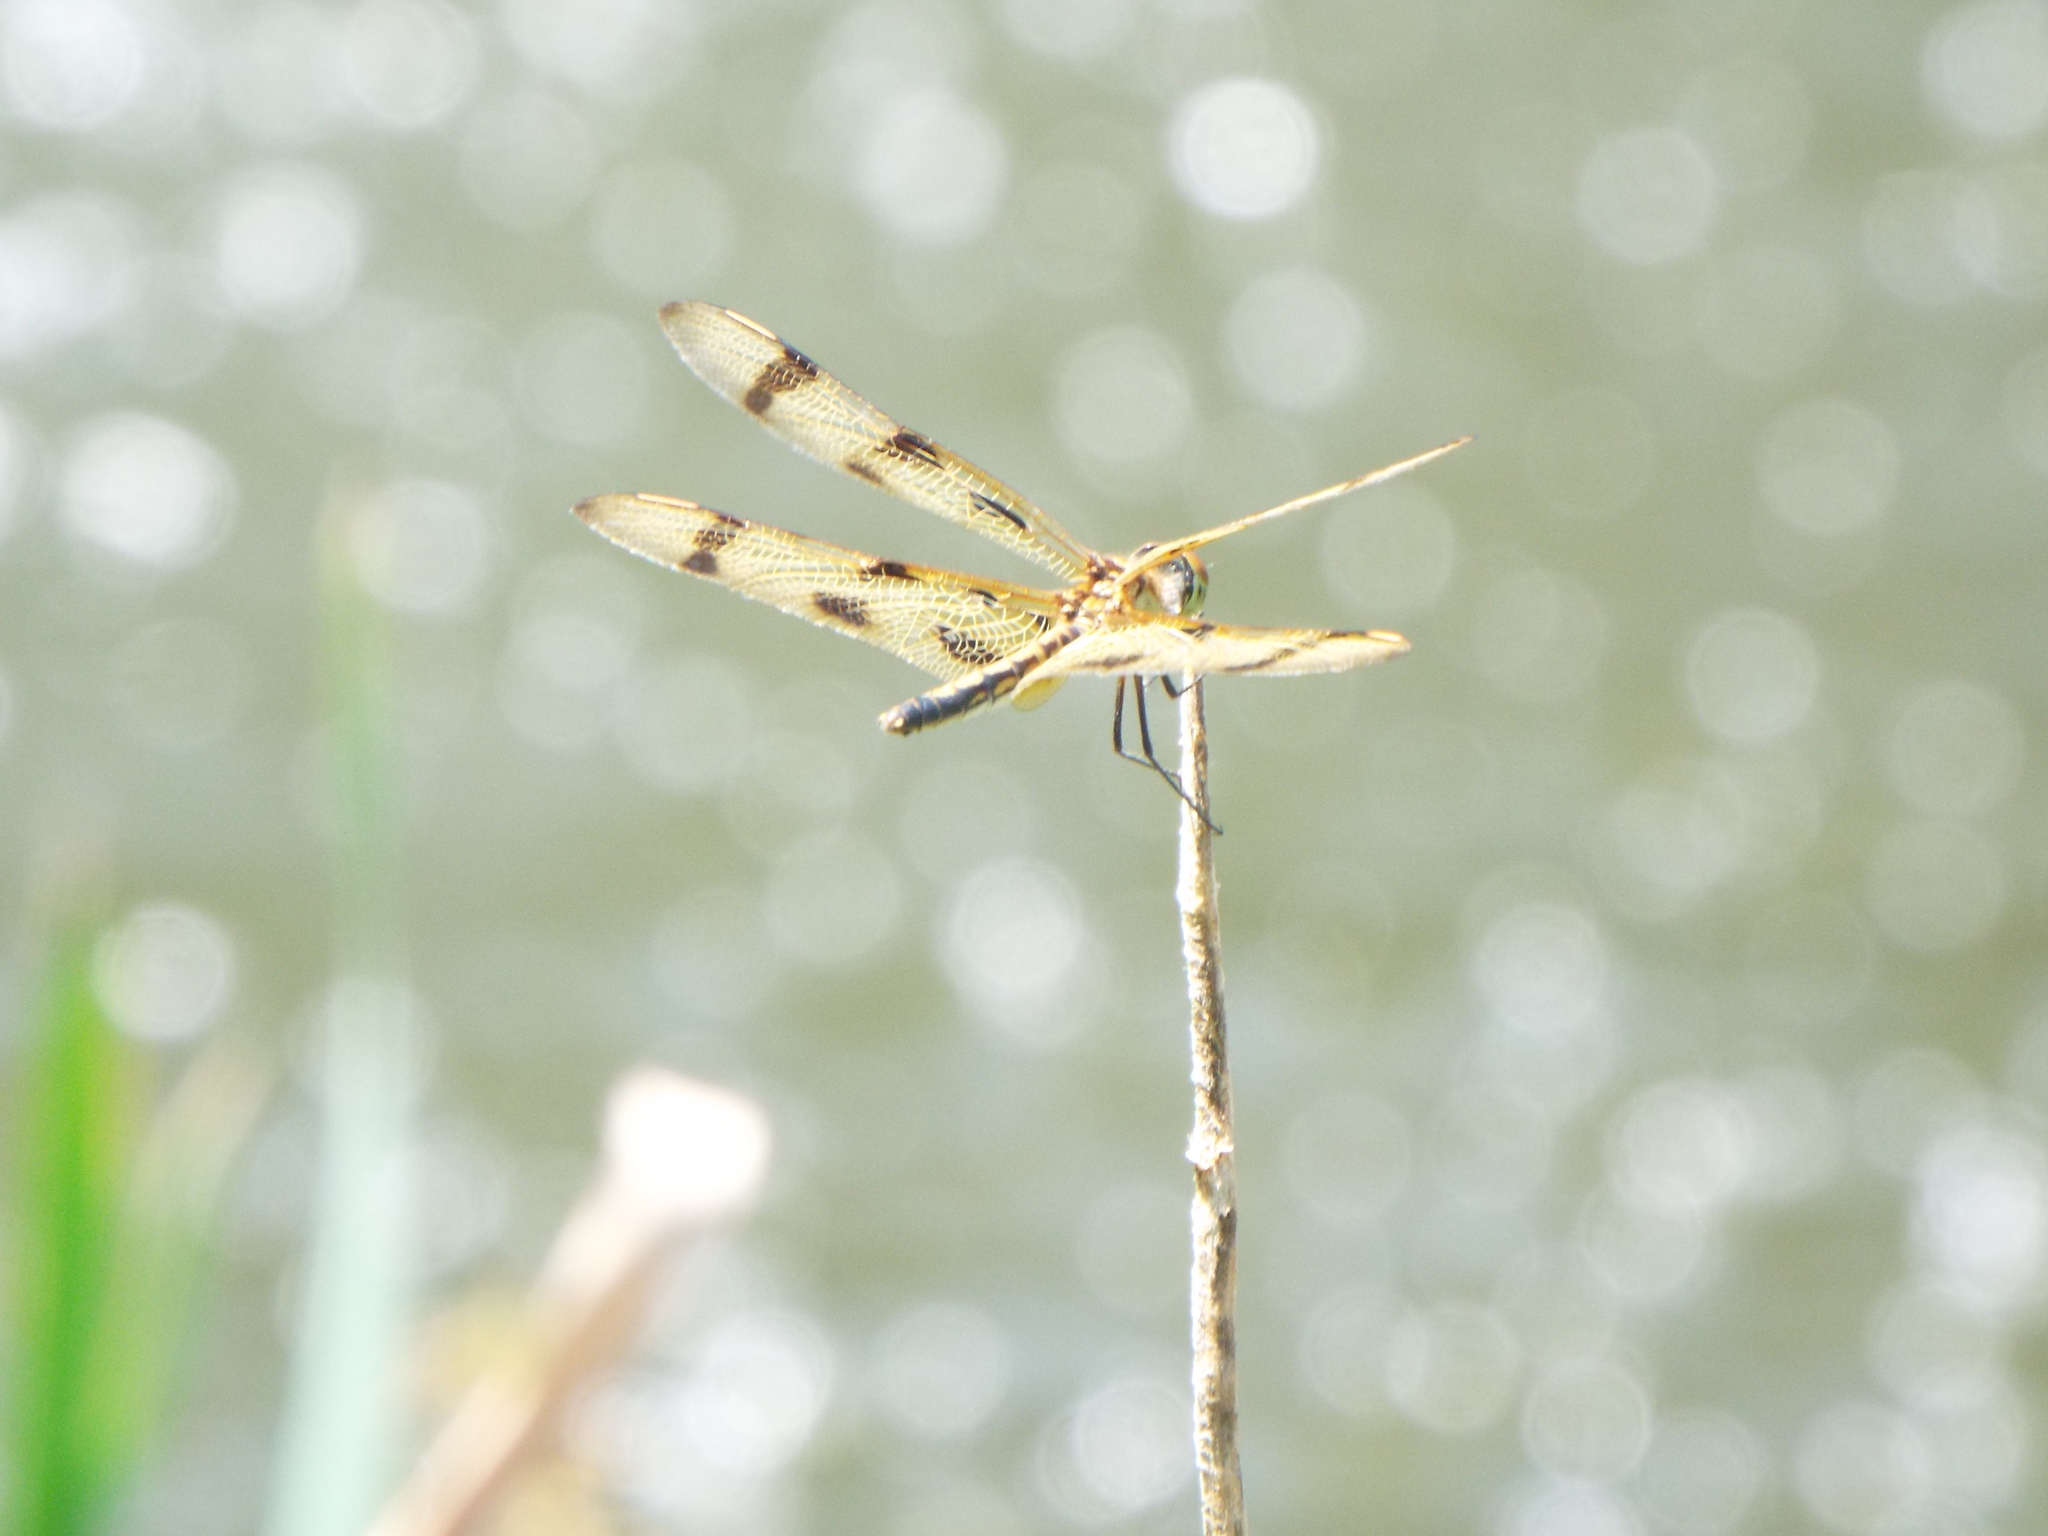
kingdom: Animalia
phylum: Arthropoda
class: Insecta
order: Odonata
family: Libellulidae
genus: Celithemis
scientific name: Celithemis eponina
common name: Halloween pennant
